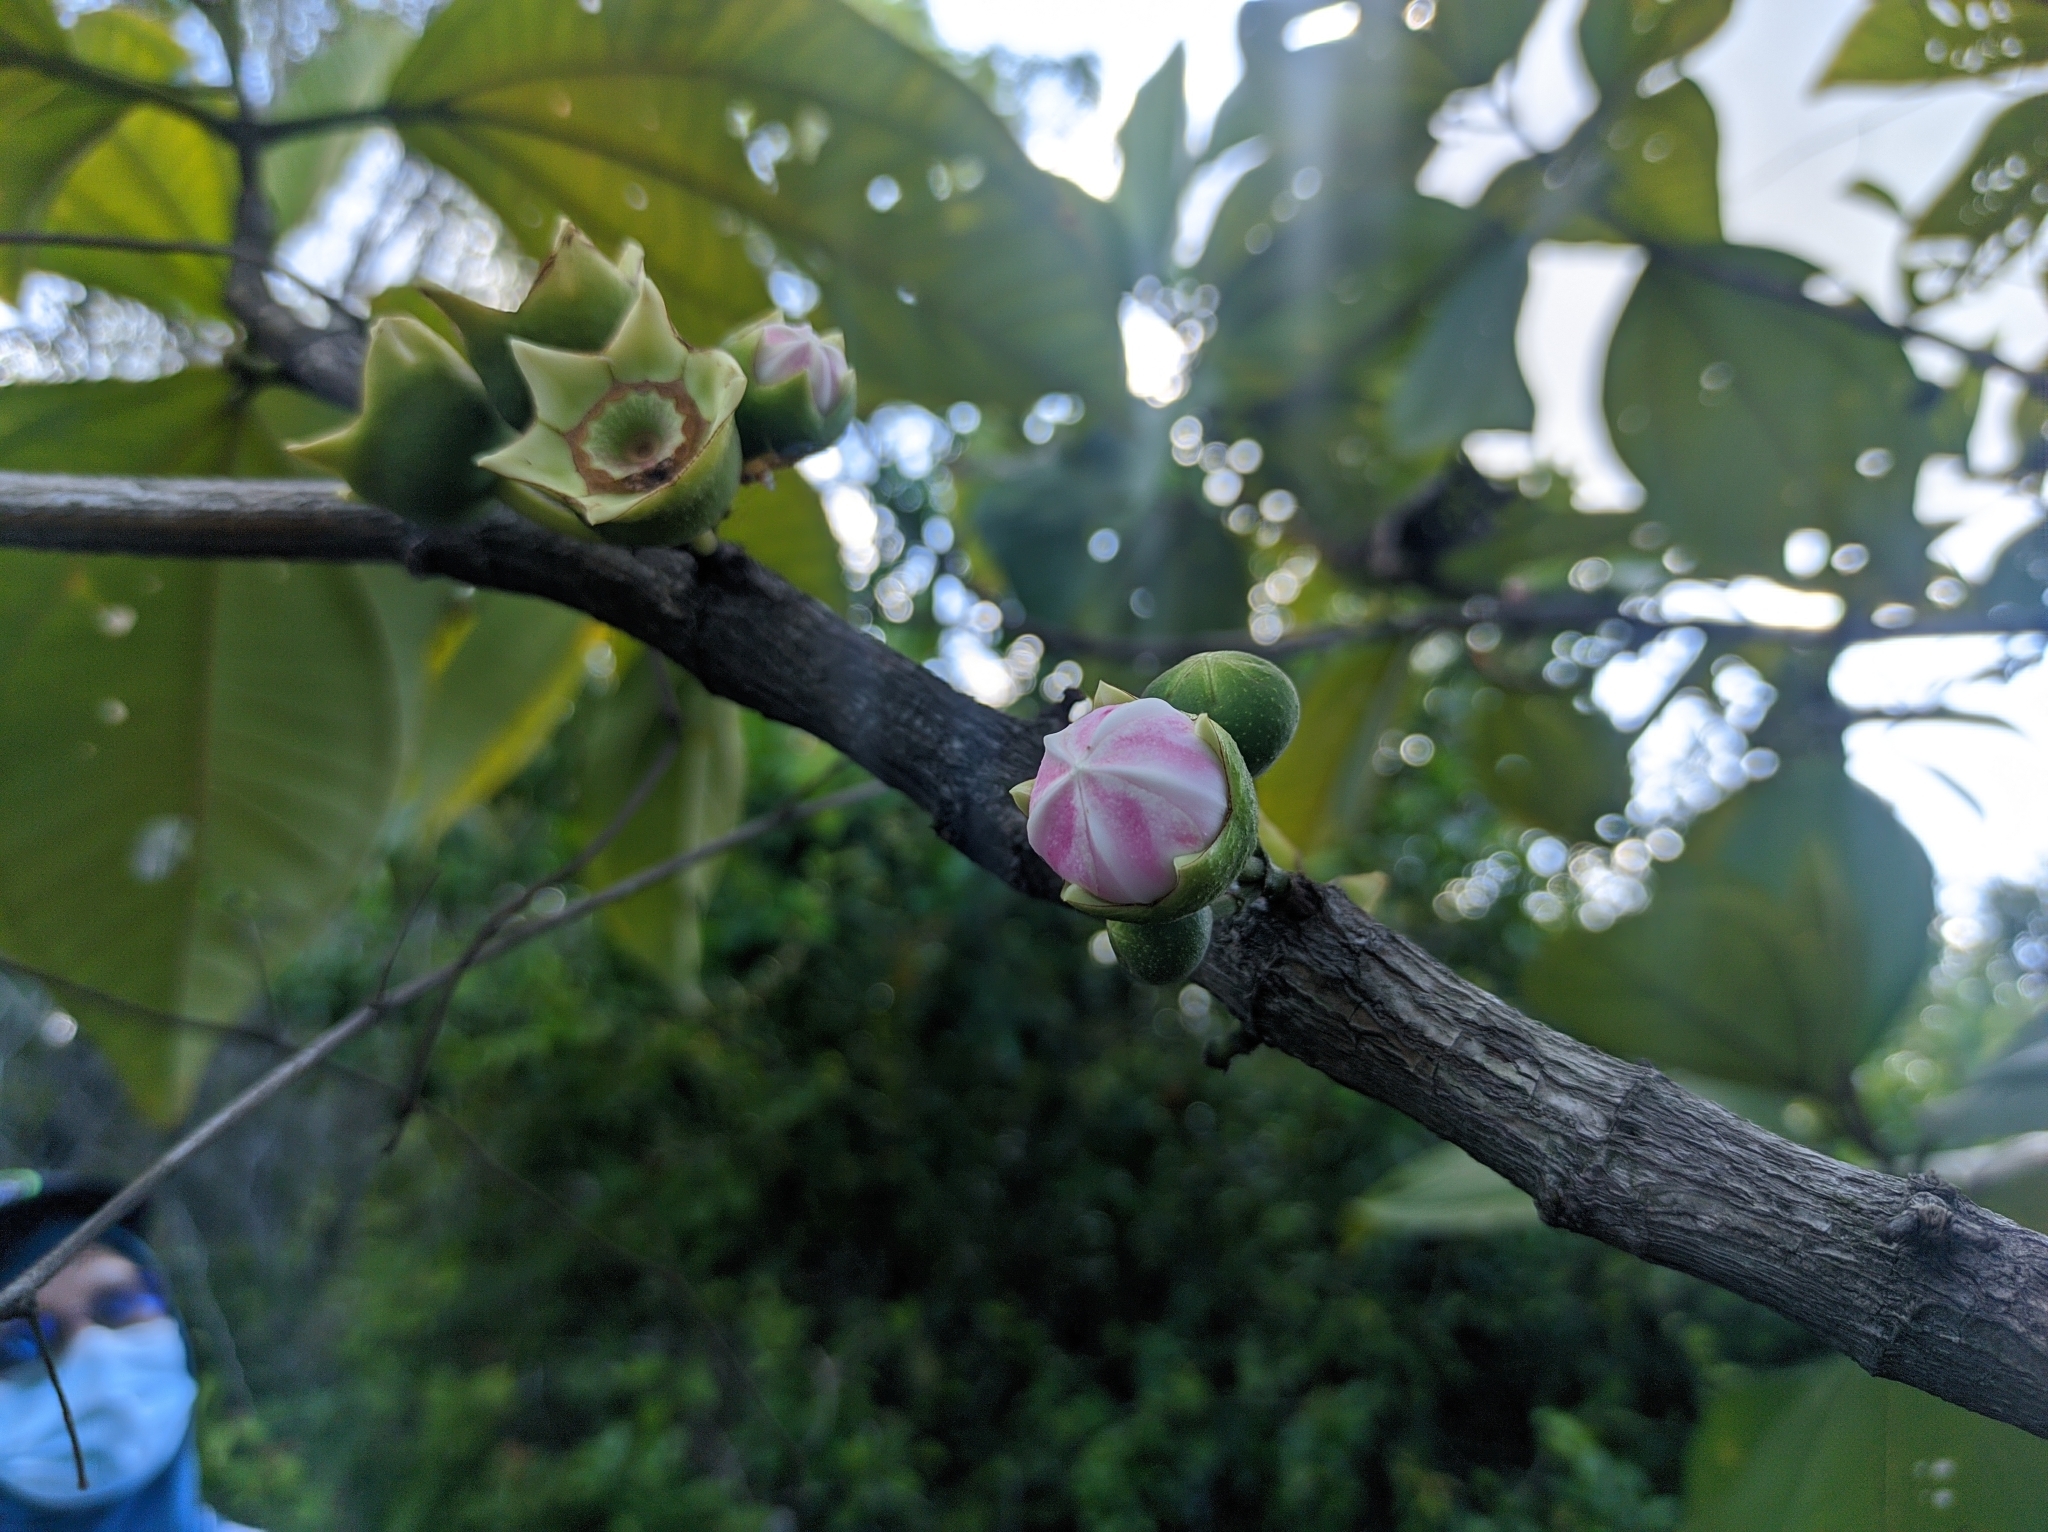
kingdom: Plantae
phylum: Tracheophyta
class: Magnoliopsida
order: Myrtales
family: Melastomataceae
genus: Bellucia
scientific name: Bellucia pentamera
